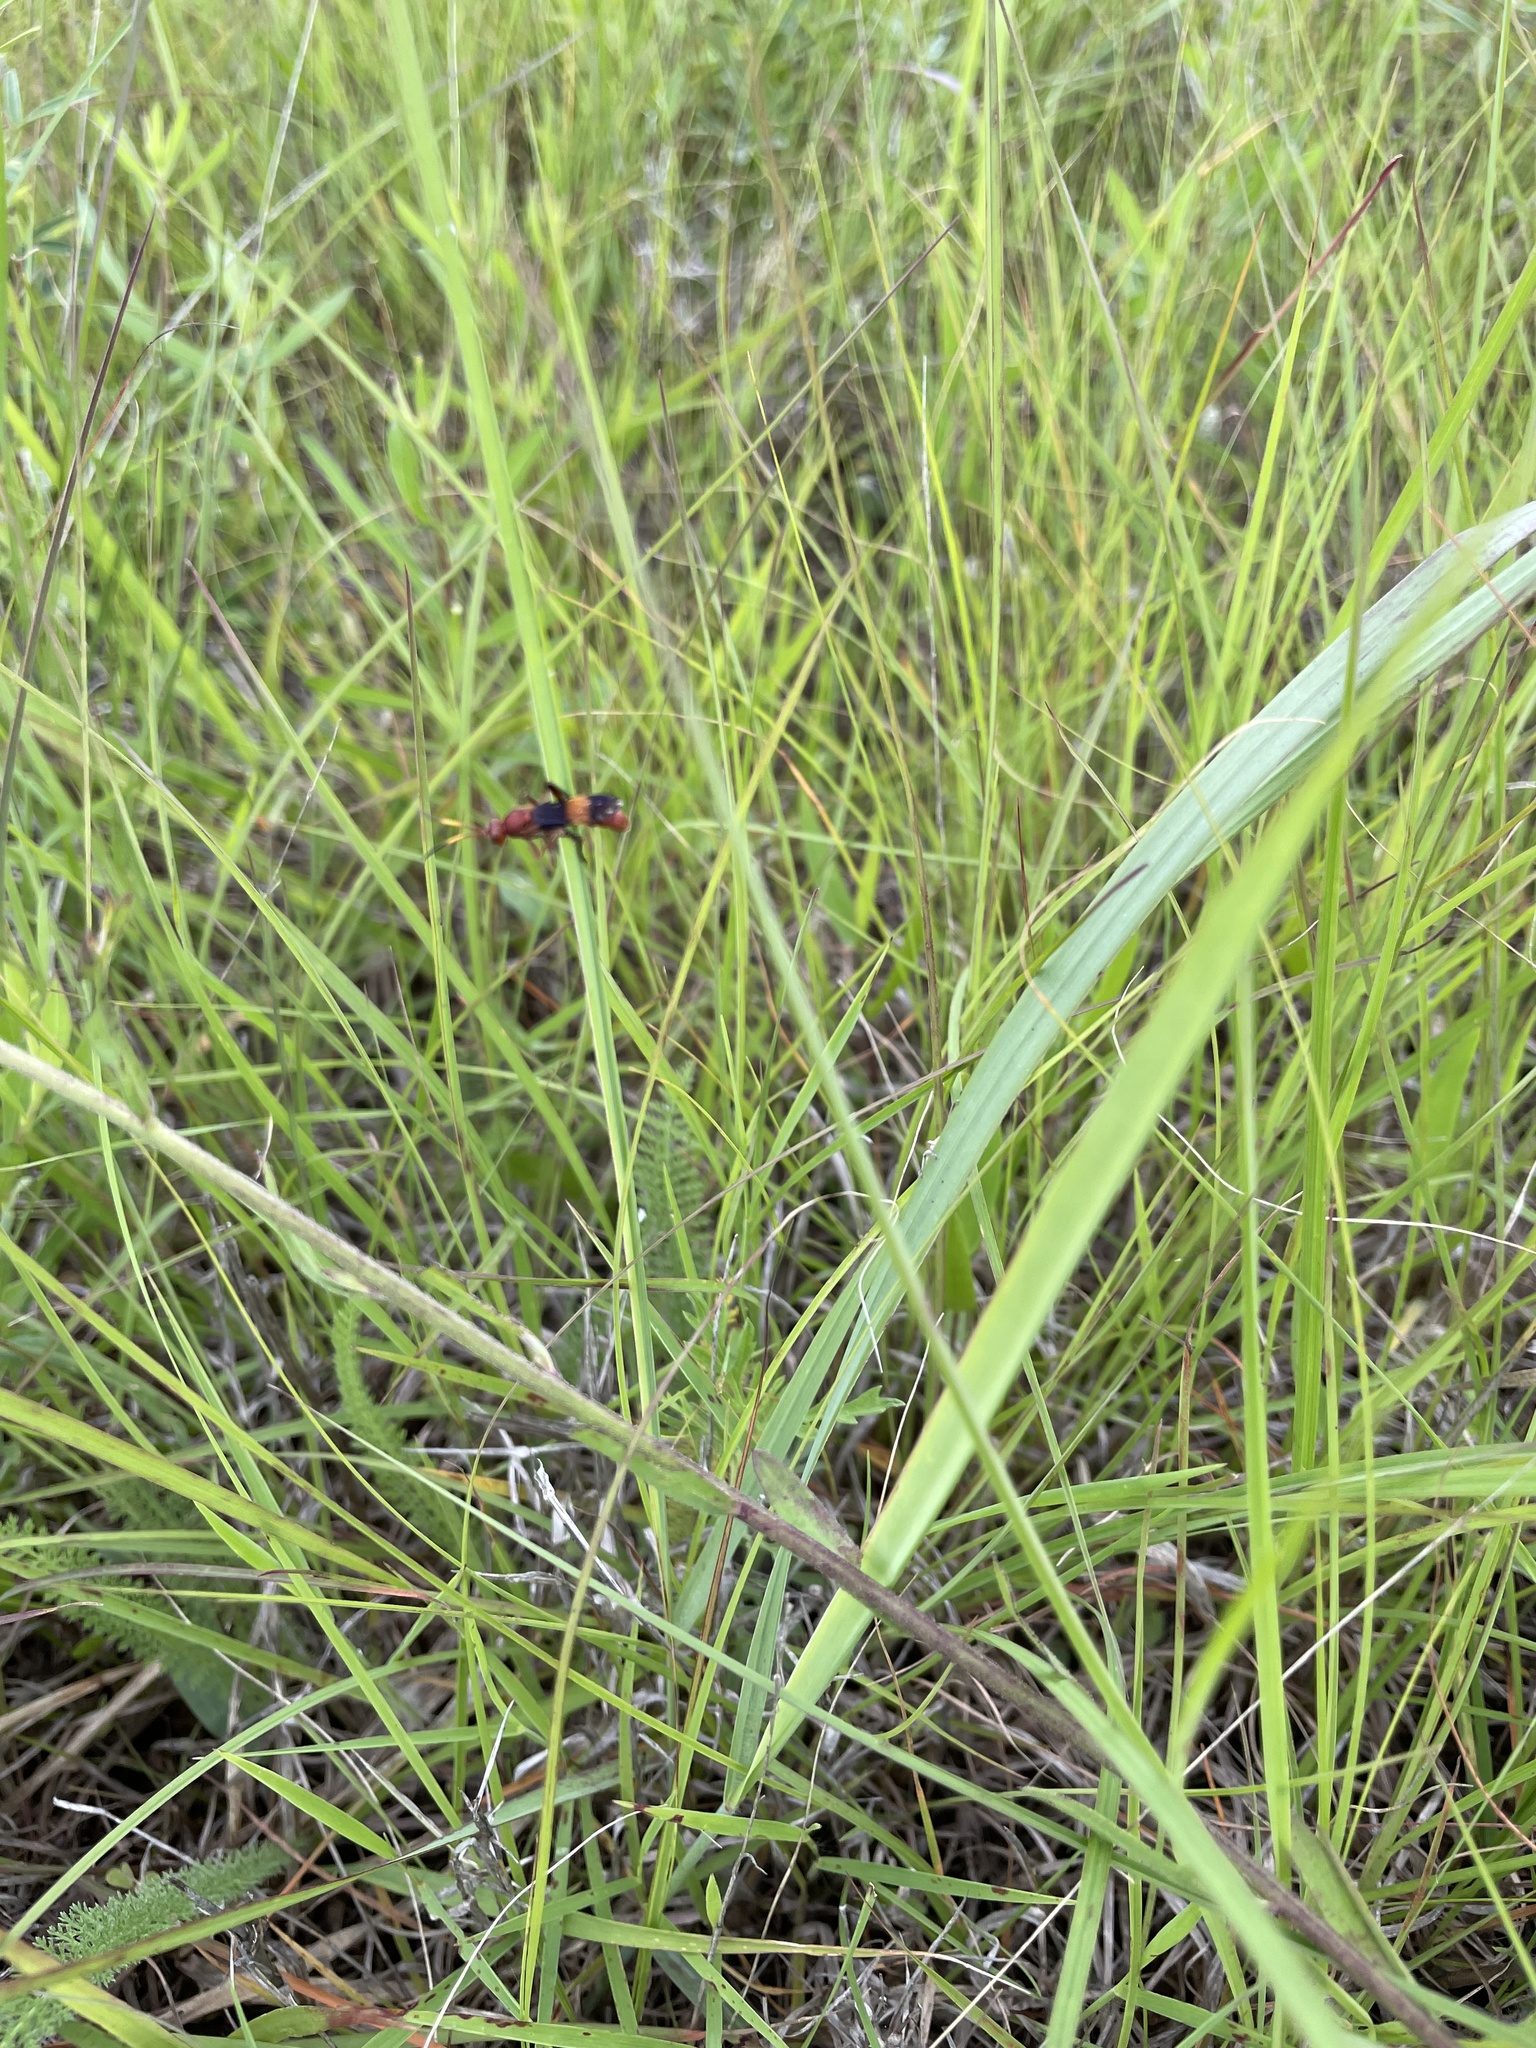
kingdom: Animalia
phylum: Arthropoda
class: Insecta
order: Hymenoptera
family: Ichneumonidae
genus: Trogomorpha
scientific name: Trogomorpha arrogans
